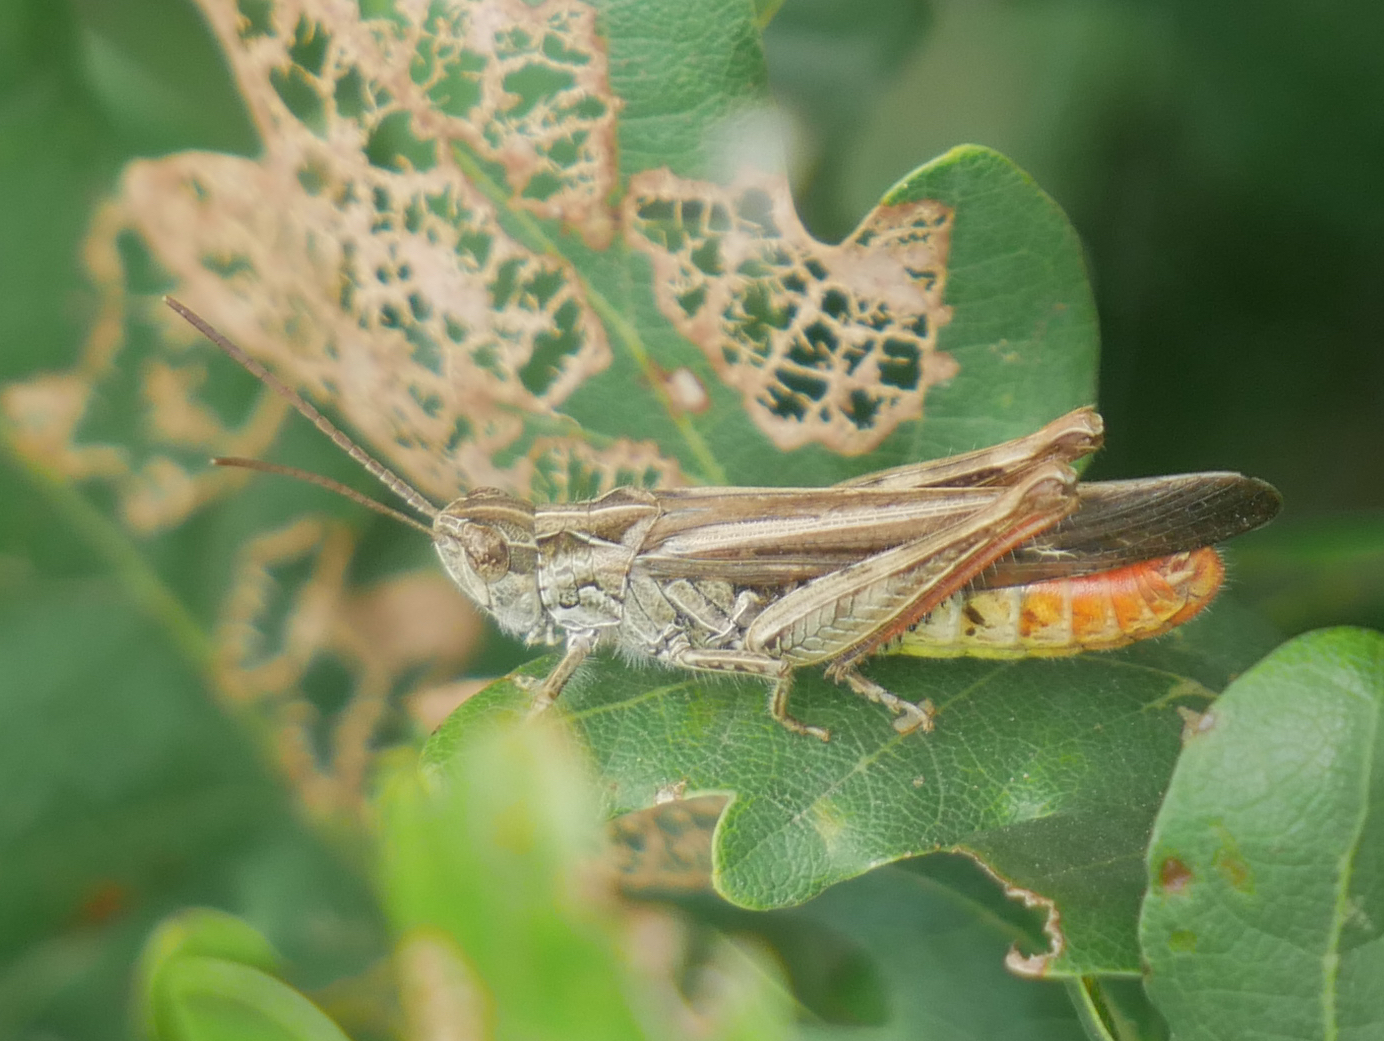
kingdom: Animalia
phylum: Arthropoda
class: Insecta
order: Orthoptera
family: Acrididae
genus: Chorthippus
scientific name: Chorthippus brunneus
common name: Field grasshopper
